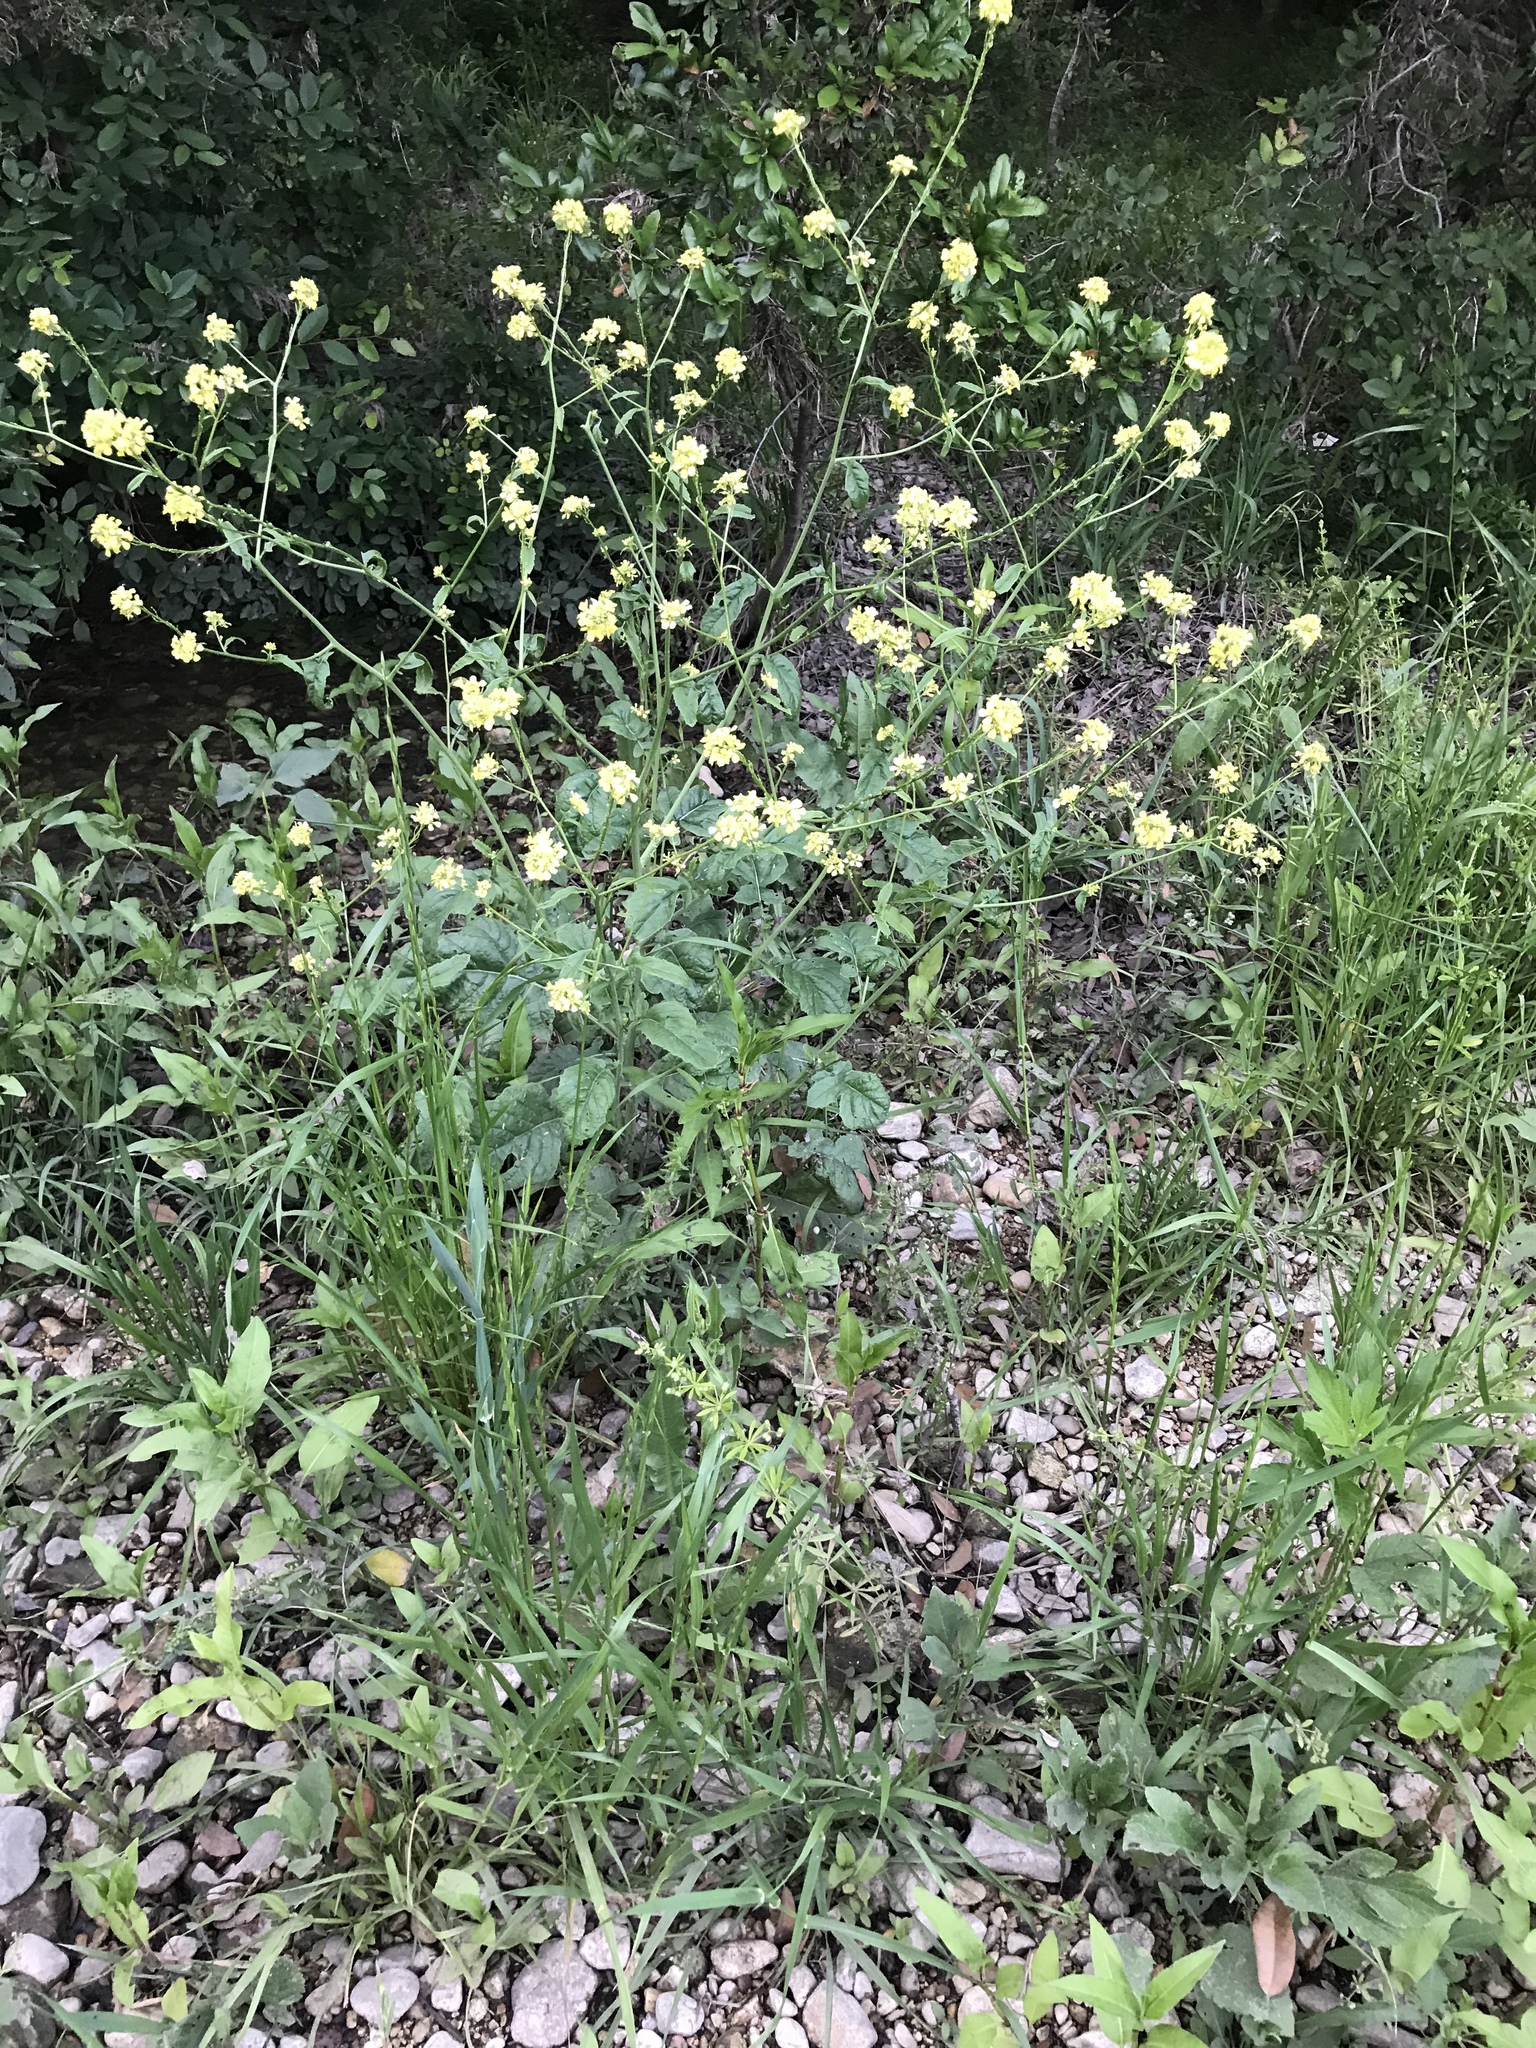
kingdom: Plantae
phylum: Tracheophyta
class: Magnoliopsida
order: Brassicales
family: Brassicaceae
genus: Rapistrum
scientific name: Rapistrum rugosum
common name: Annual bastardcabbage
